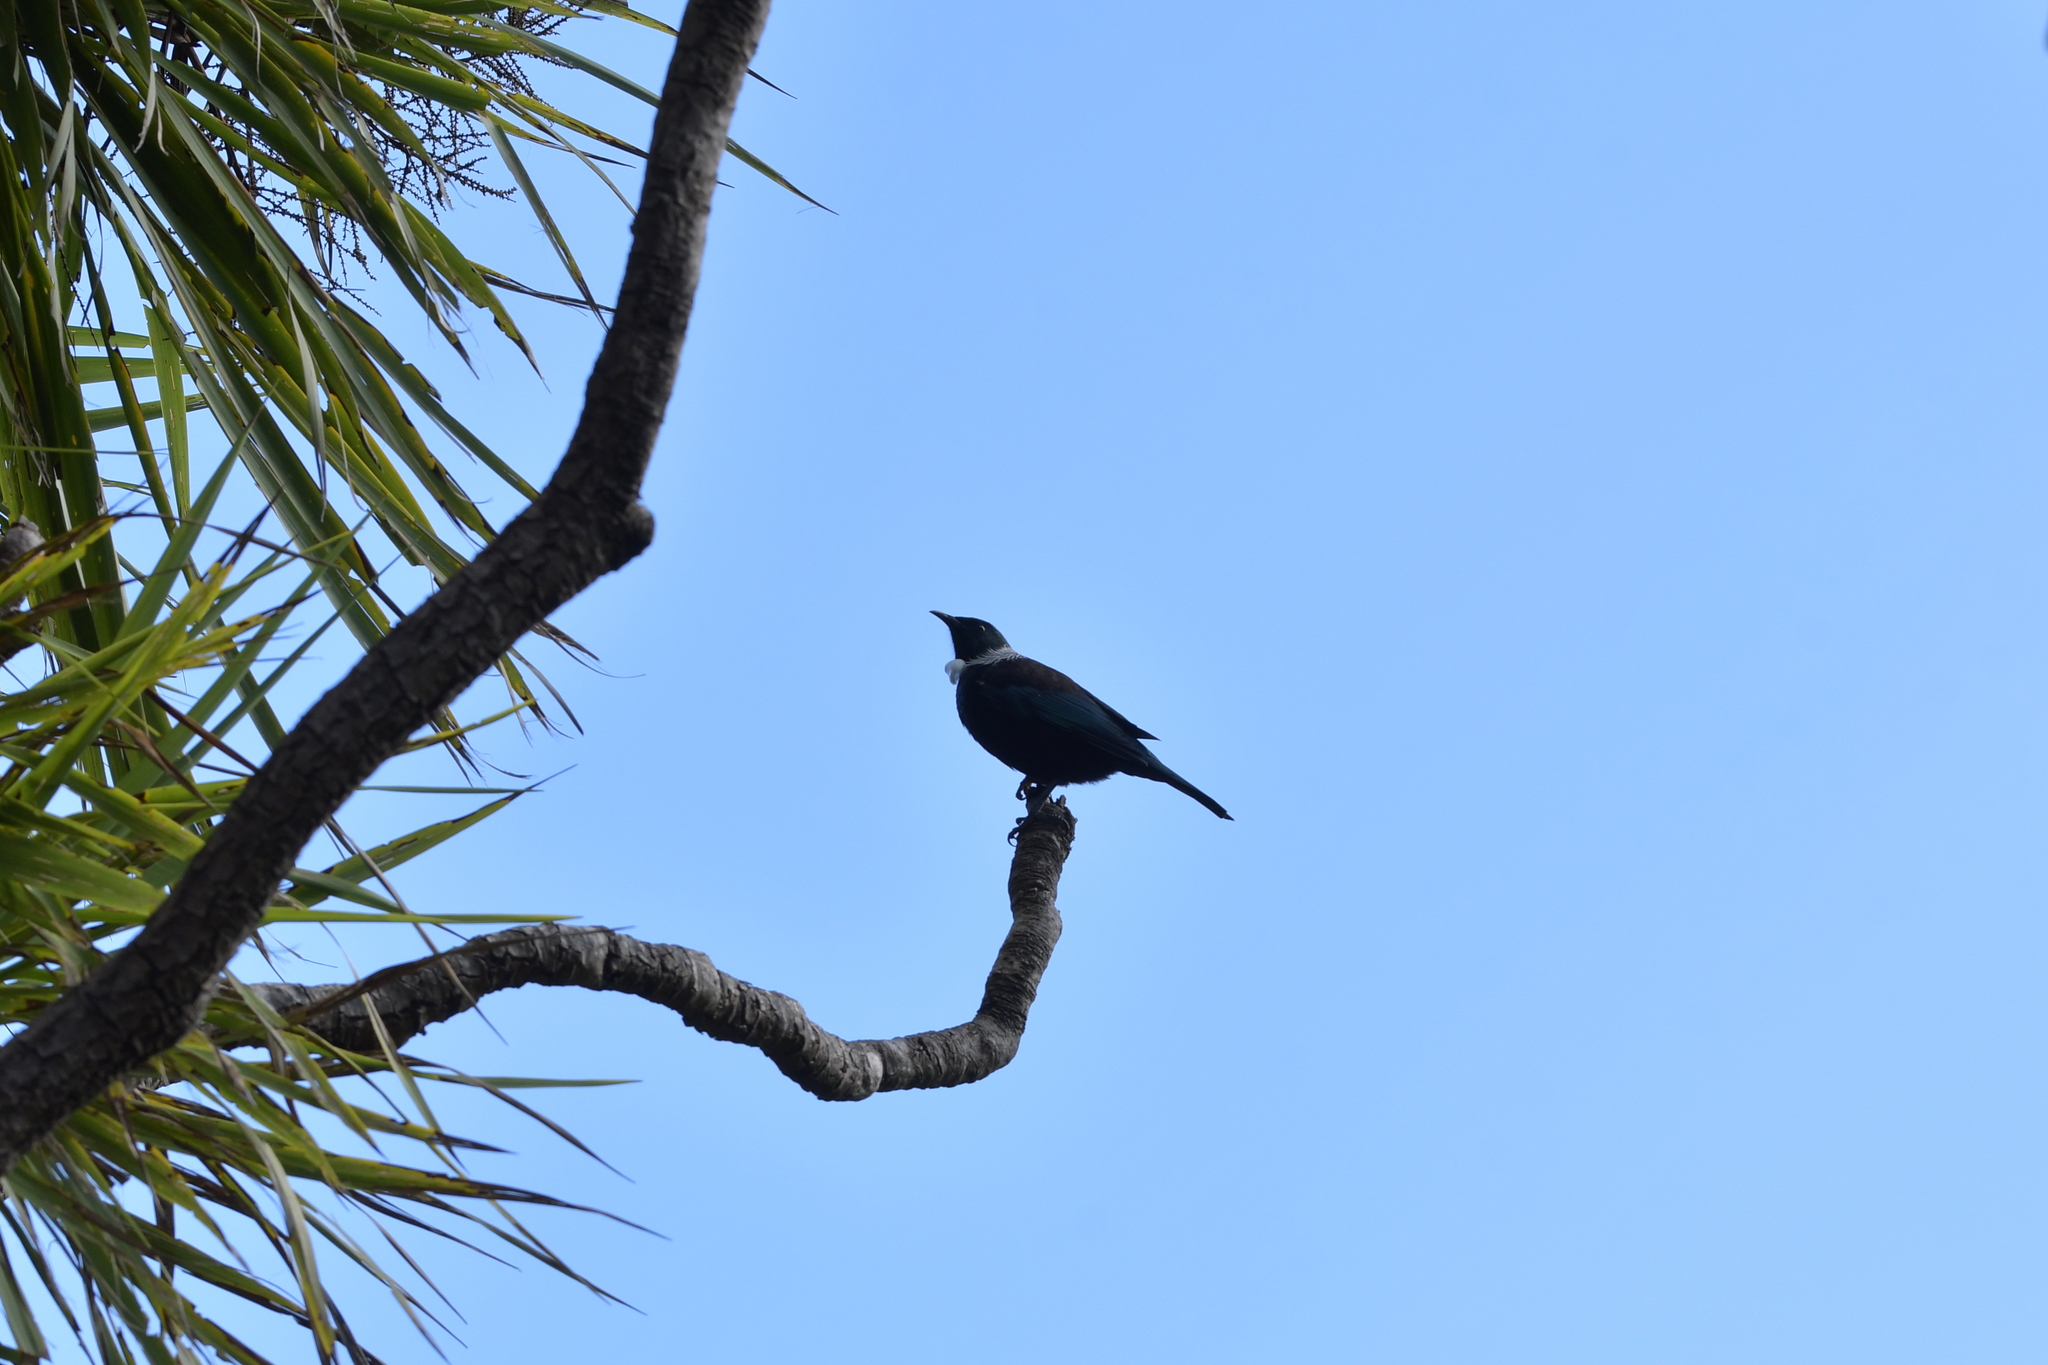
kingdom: Animalia
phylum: Chordata
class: Aves
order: Passeriformes
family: Meliphagidae
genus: Prosthemadera
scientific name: Prosthemadera novaeseelandiae
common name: Tui
